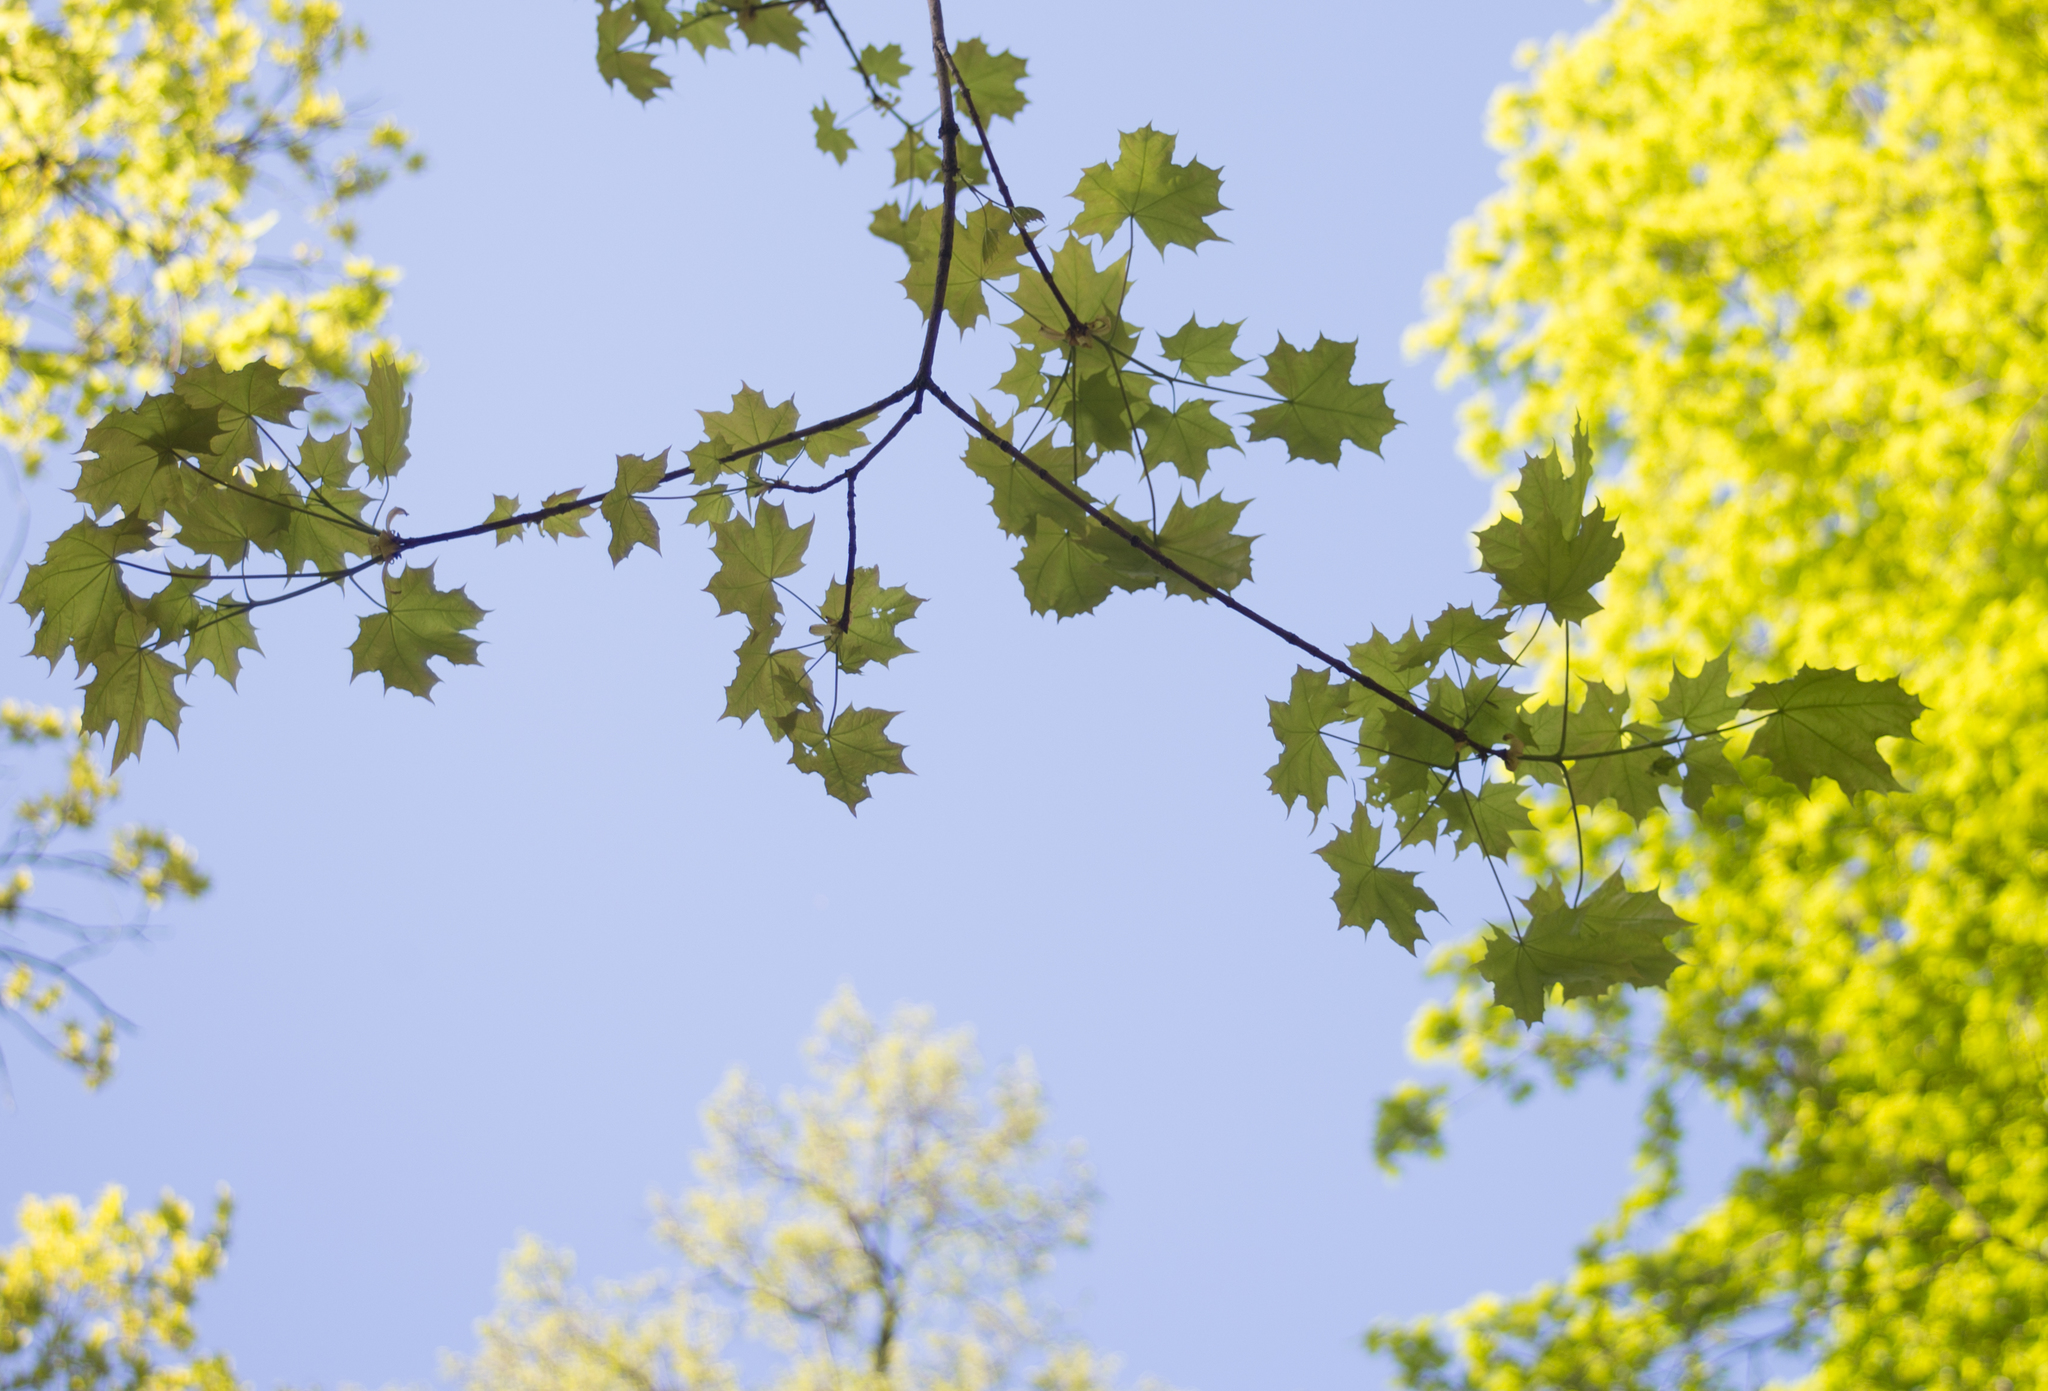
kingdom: Plantae
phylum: Tracheophyta
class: Magnoliopsida
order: Sapindales
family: Sapindaceae
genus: Acer
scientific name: Acer platanoides
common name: Norway maple
